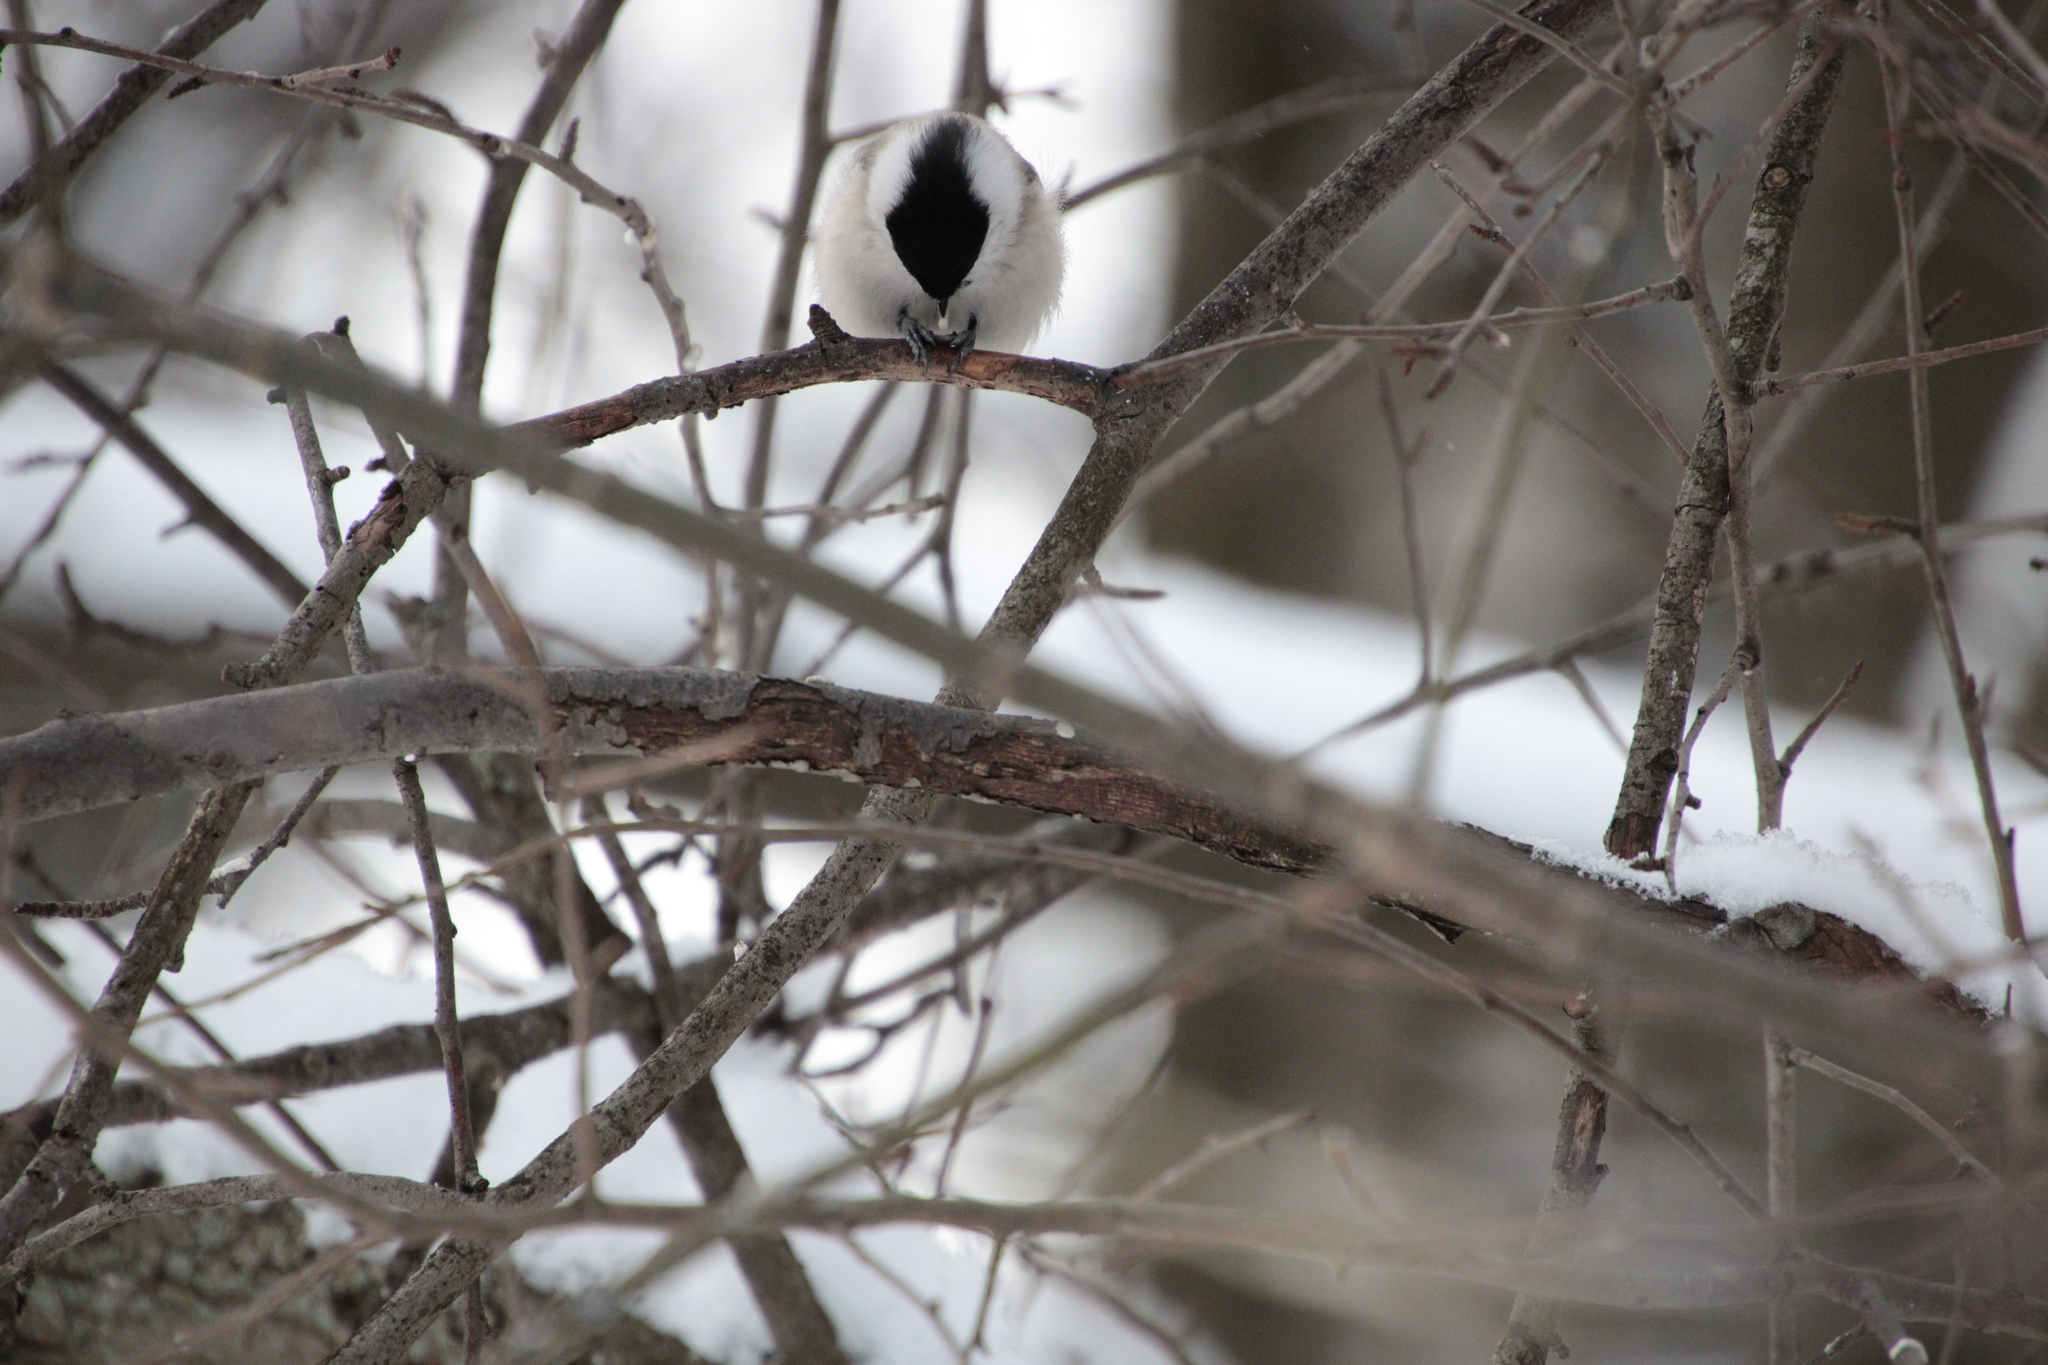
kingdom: Animalia
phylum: Chordata
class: Aves
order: Passeriformes
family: Paridae
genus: Poecile
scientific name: Poecile montanus
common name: Willow tit
